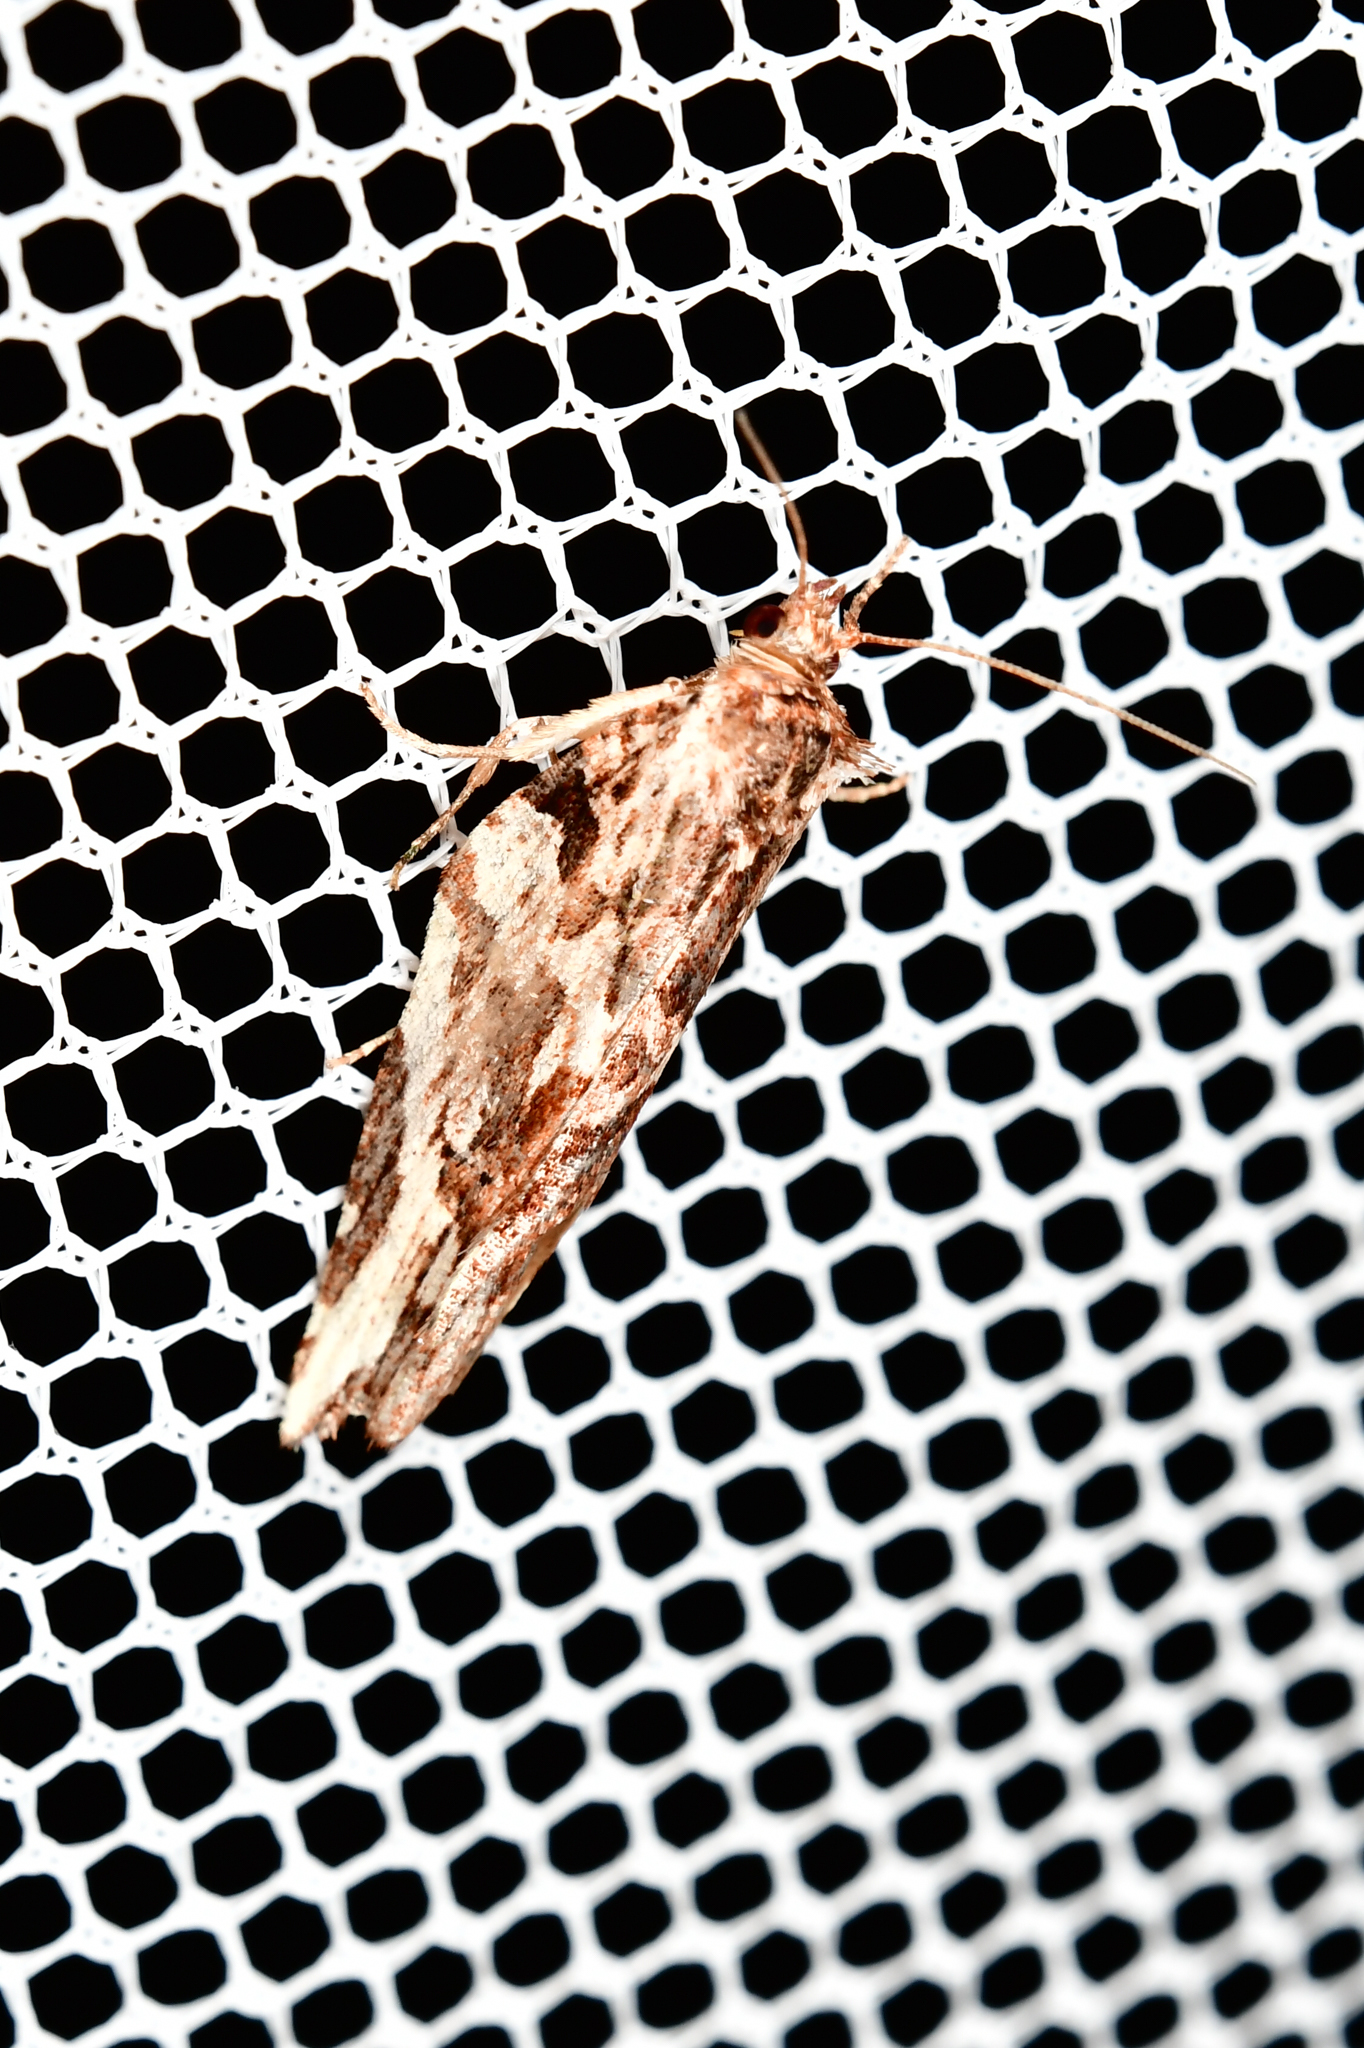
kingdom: Animalia
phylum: Arthropoda
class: Insecta
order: Lepidoptera
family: Tortricidae
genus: Epalxiphora
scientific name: Epalxiphora axenana
